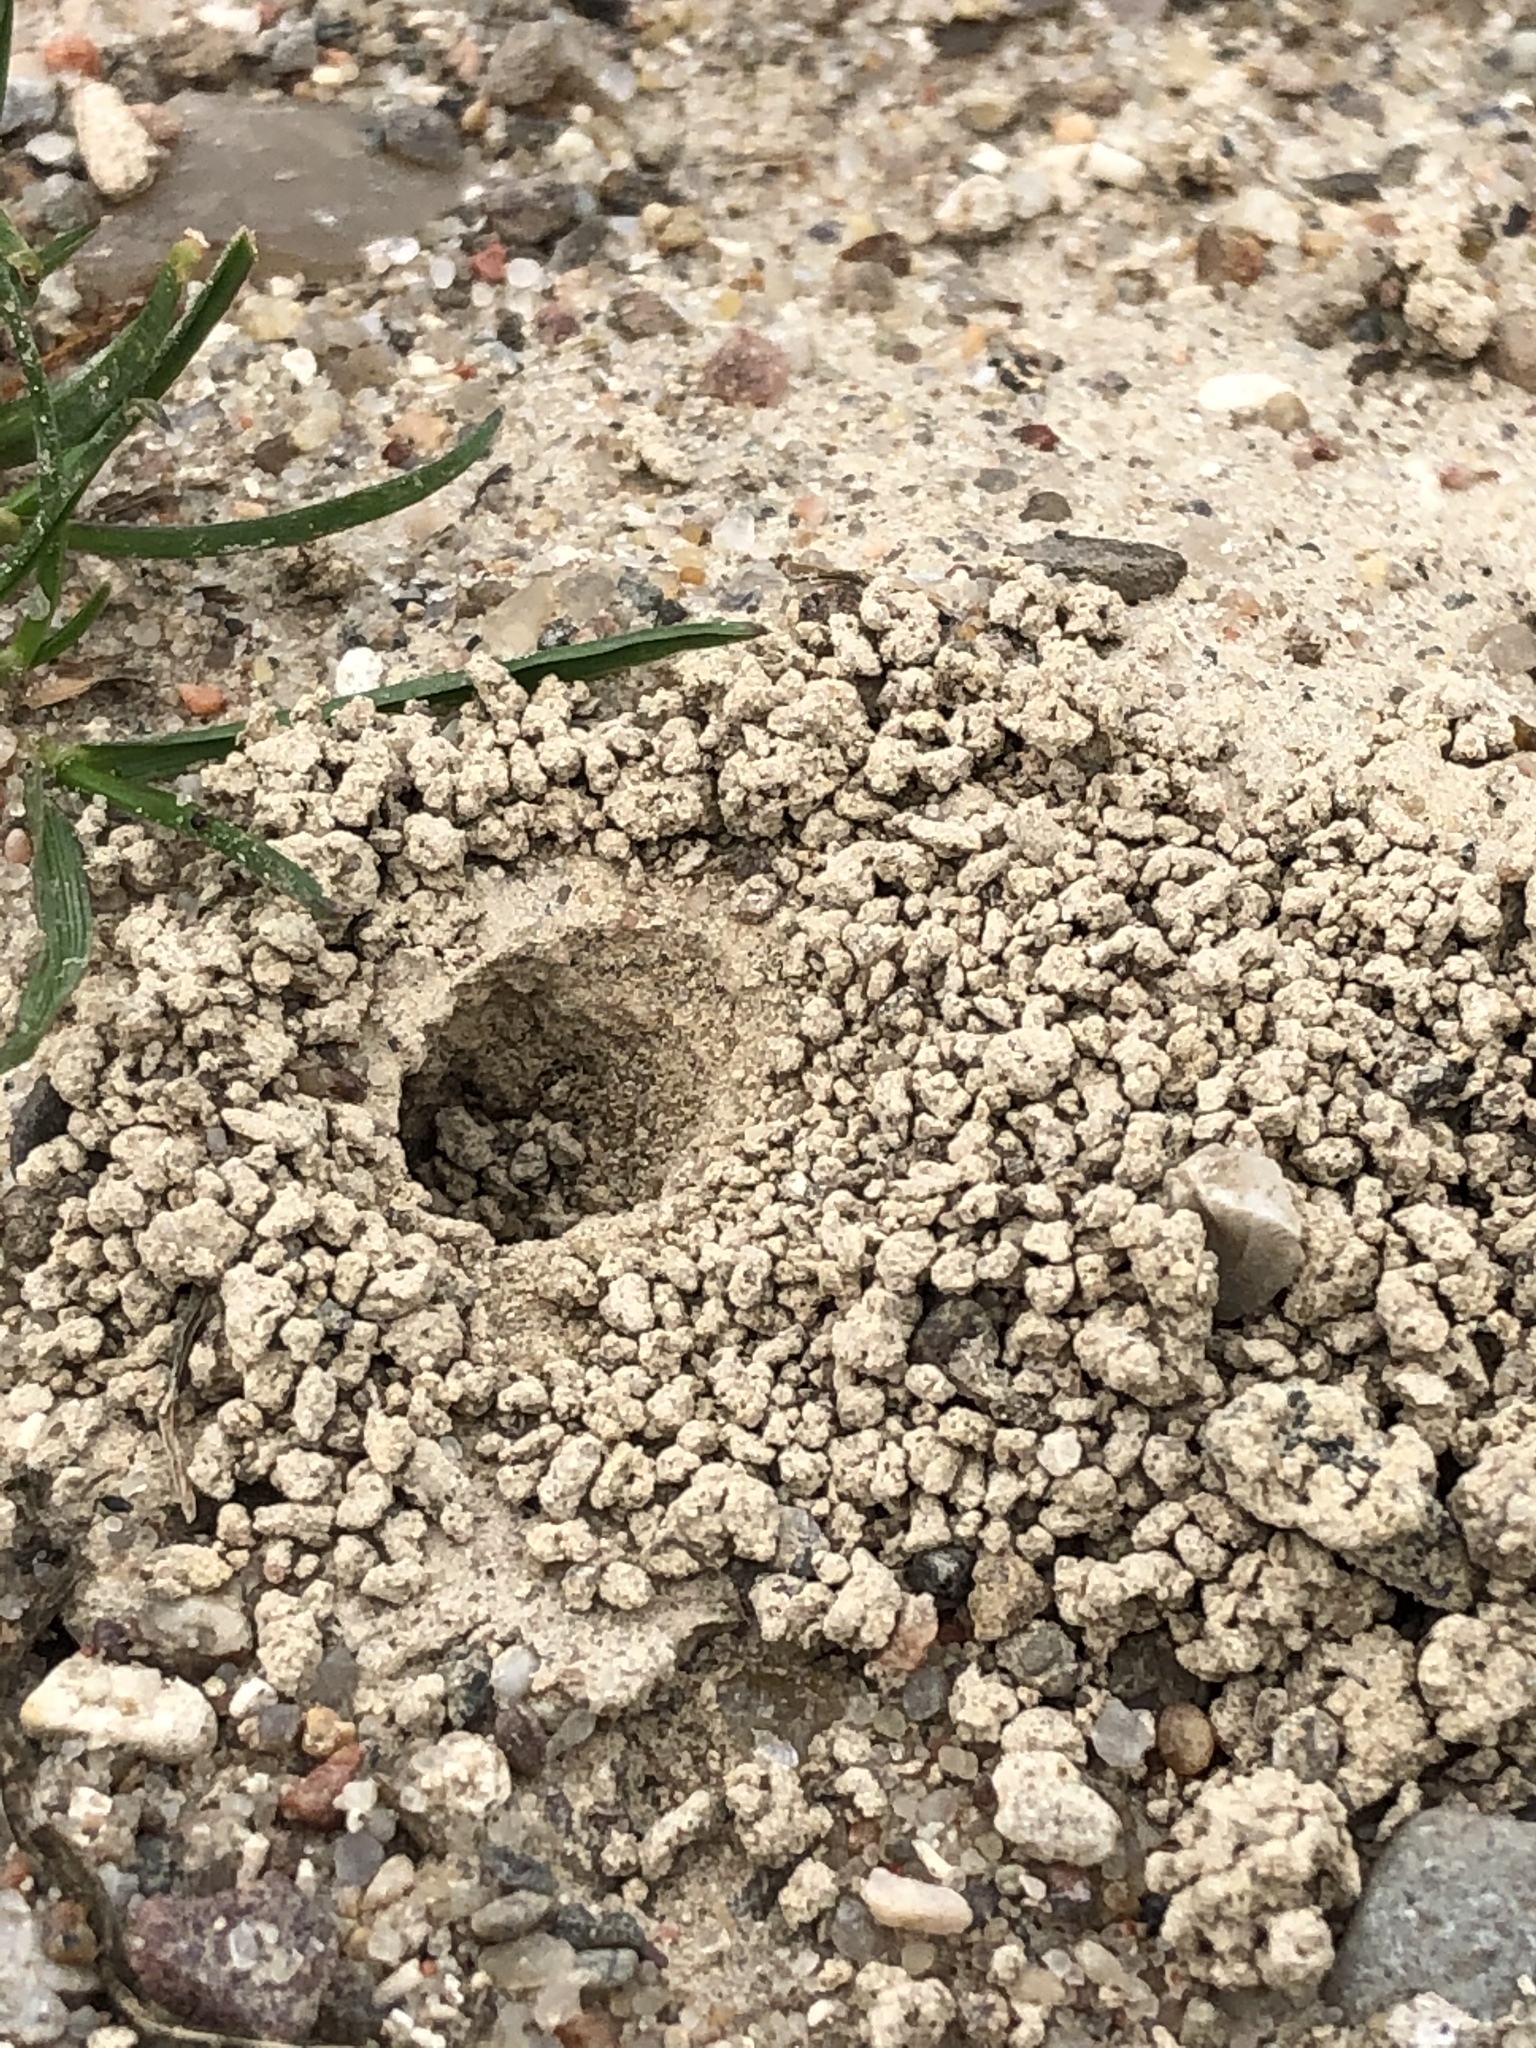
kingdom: Animalia
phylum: Arthropoda
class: Insecta
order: Hymenoptera
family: Crabronidae
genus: Philanthus
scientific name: Philanthus triangulum
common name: Bee wolf
